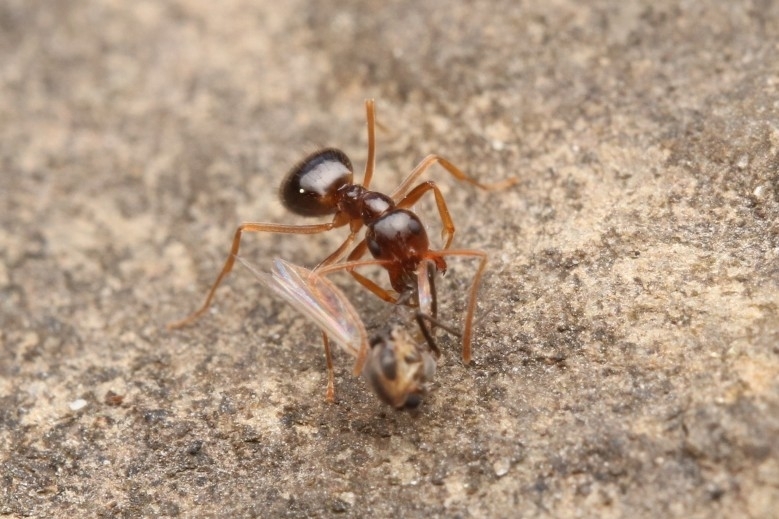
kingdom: Animalia
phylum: Arthropoda
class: Insecta
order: Hymenoptera
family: Formicidae
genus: Prenolepis
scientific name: Prenolepis imparis
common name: Small honey ant
